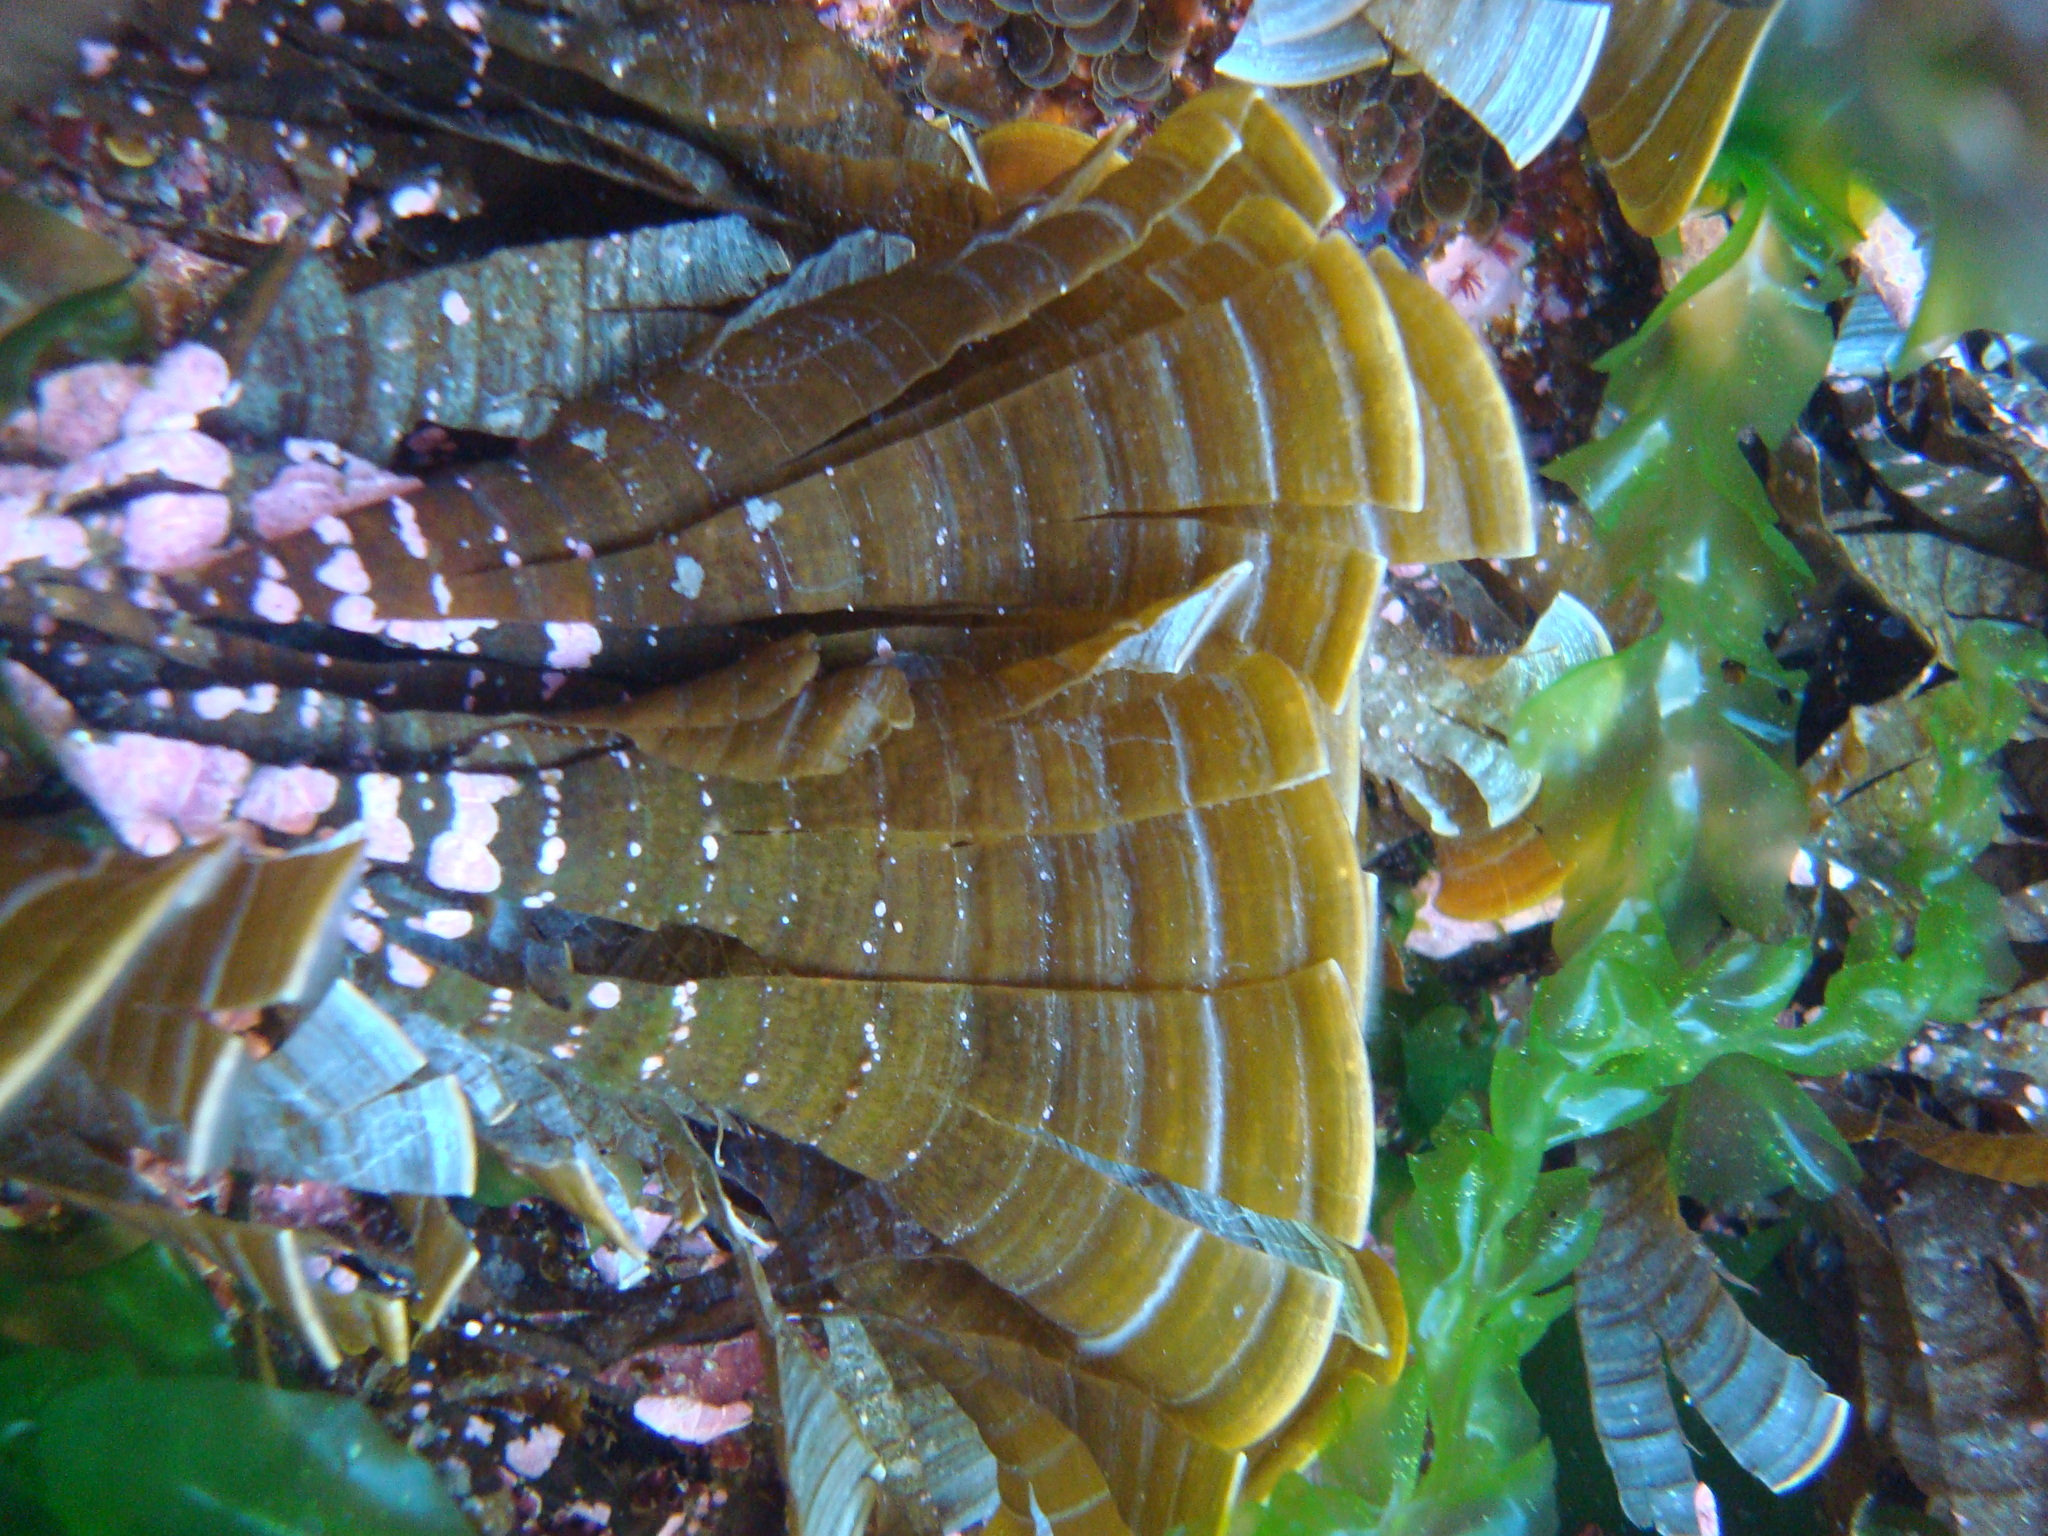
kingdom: Chromista
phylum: Ochrophyta
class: Phaeophyceae
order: Dictyotales
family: Dictyotaceae
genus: Padina
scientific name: Padina
